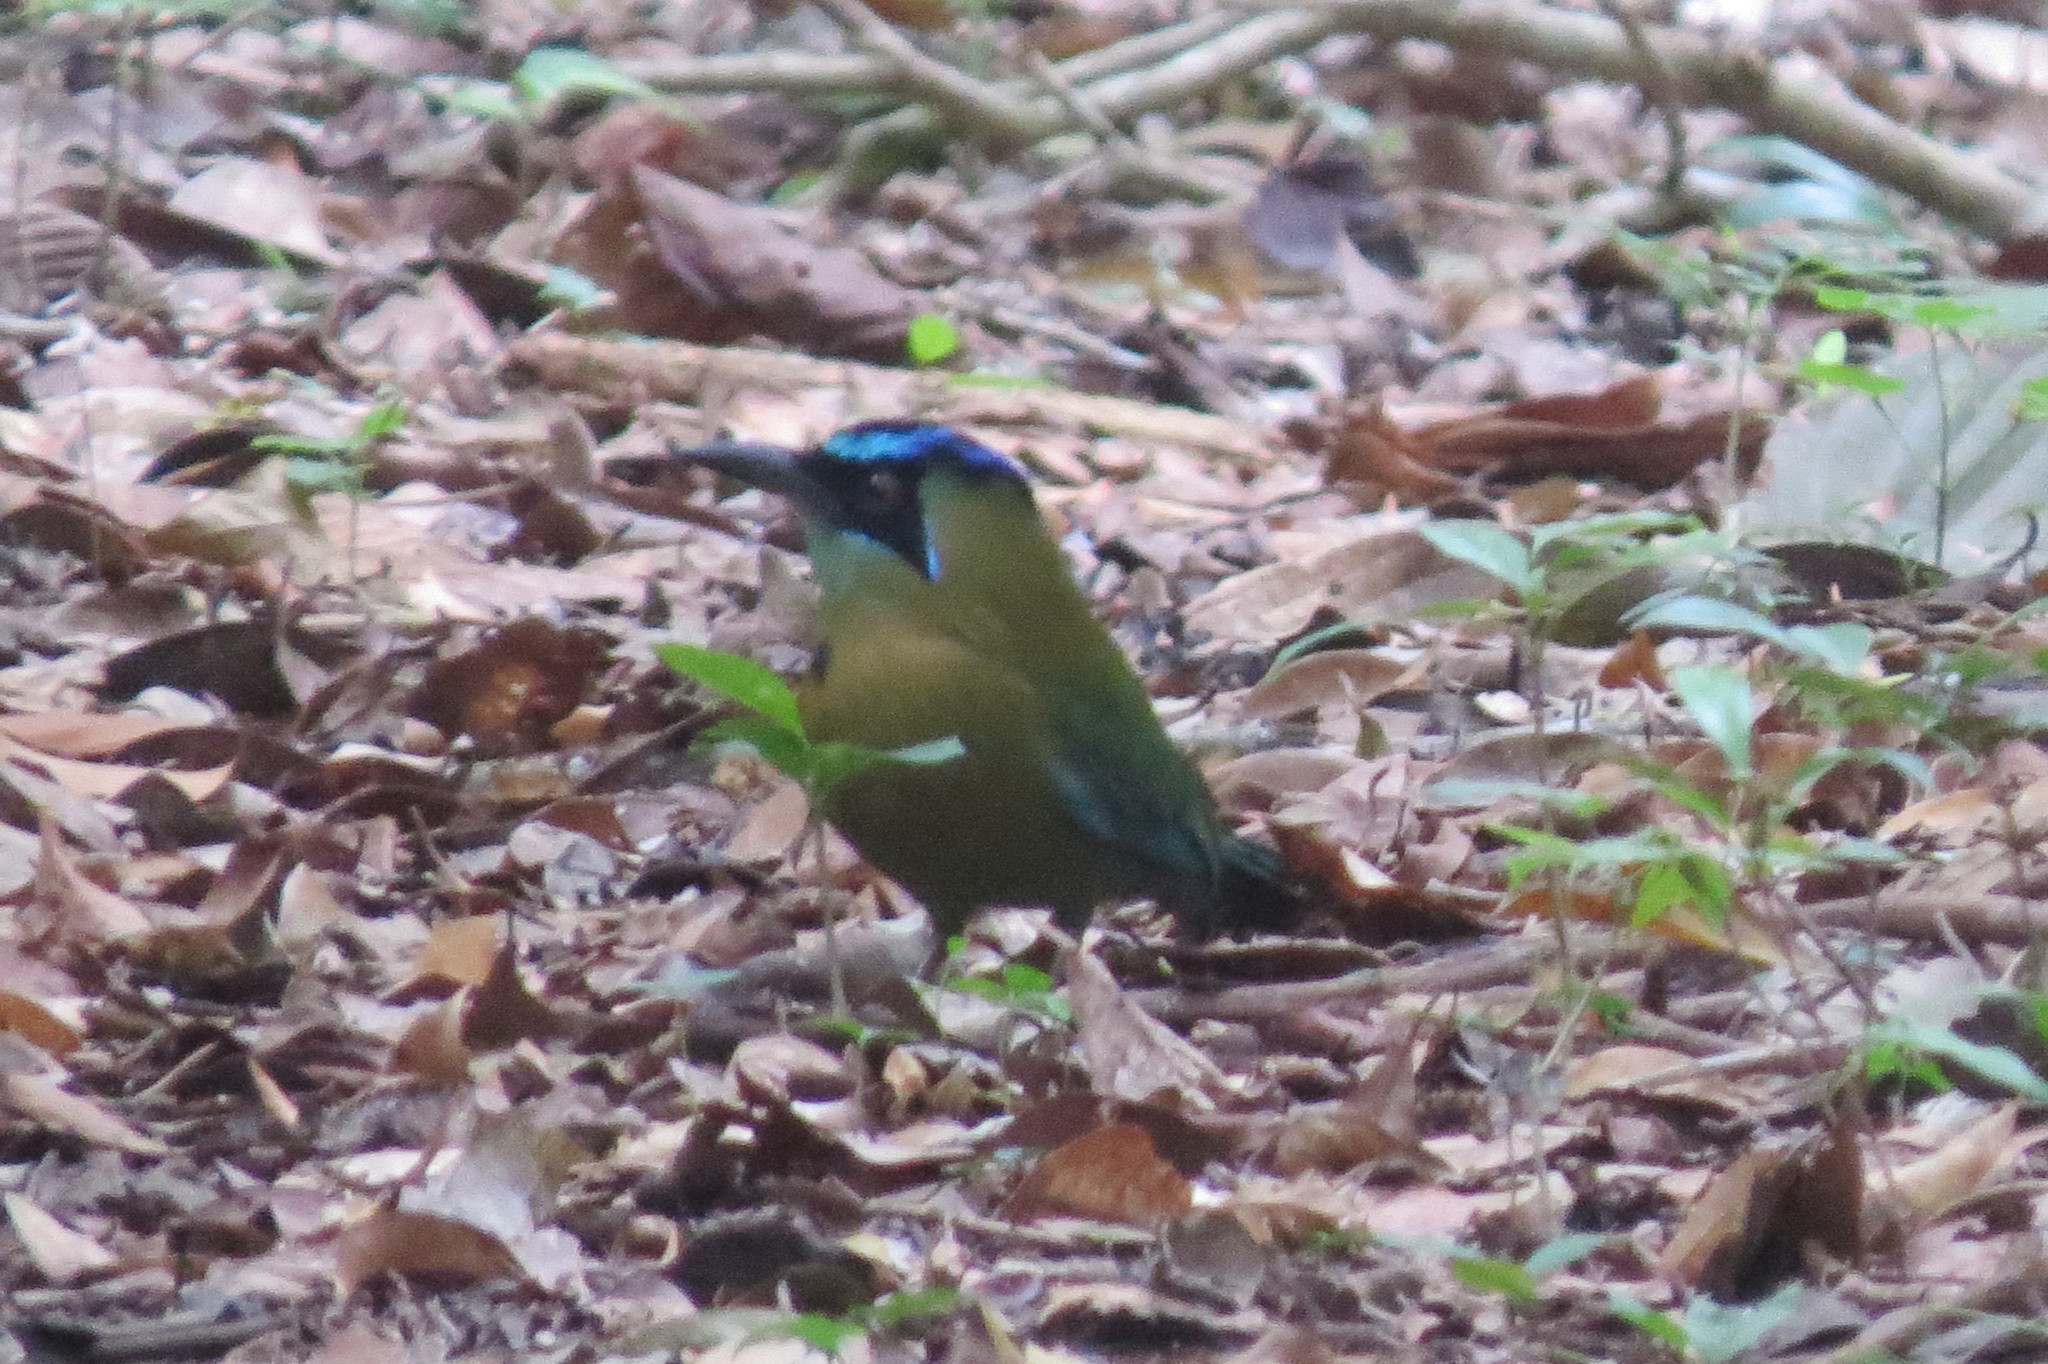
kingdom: Animalia
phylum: Chordata
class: Aves
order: Coraciiformes
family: Momotidae
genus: Momotus
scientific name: Momotus lessonii
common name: Lesson's motmot
